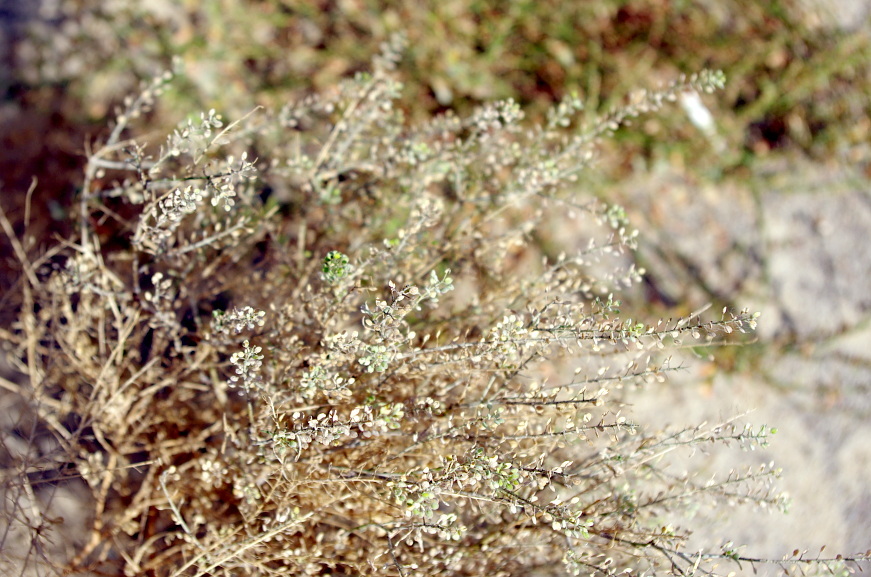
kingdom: Plantae
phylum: Tracheophyta
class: Magnoliopsida
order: Brassicales
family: Brassicaceae
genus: Lepidium
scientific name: Lepidium ruderale
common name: Narrow-leaved pepperwort
